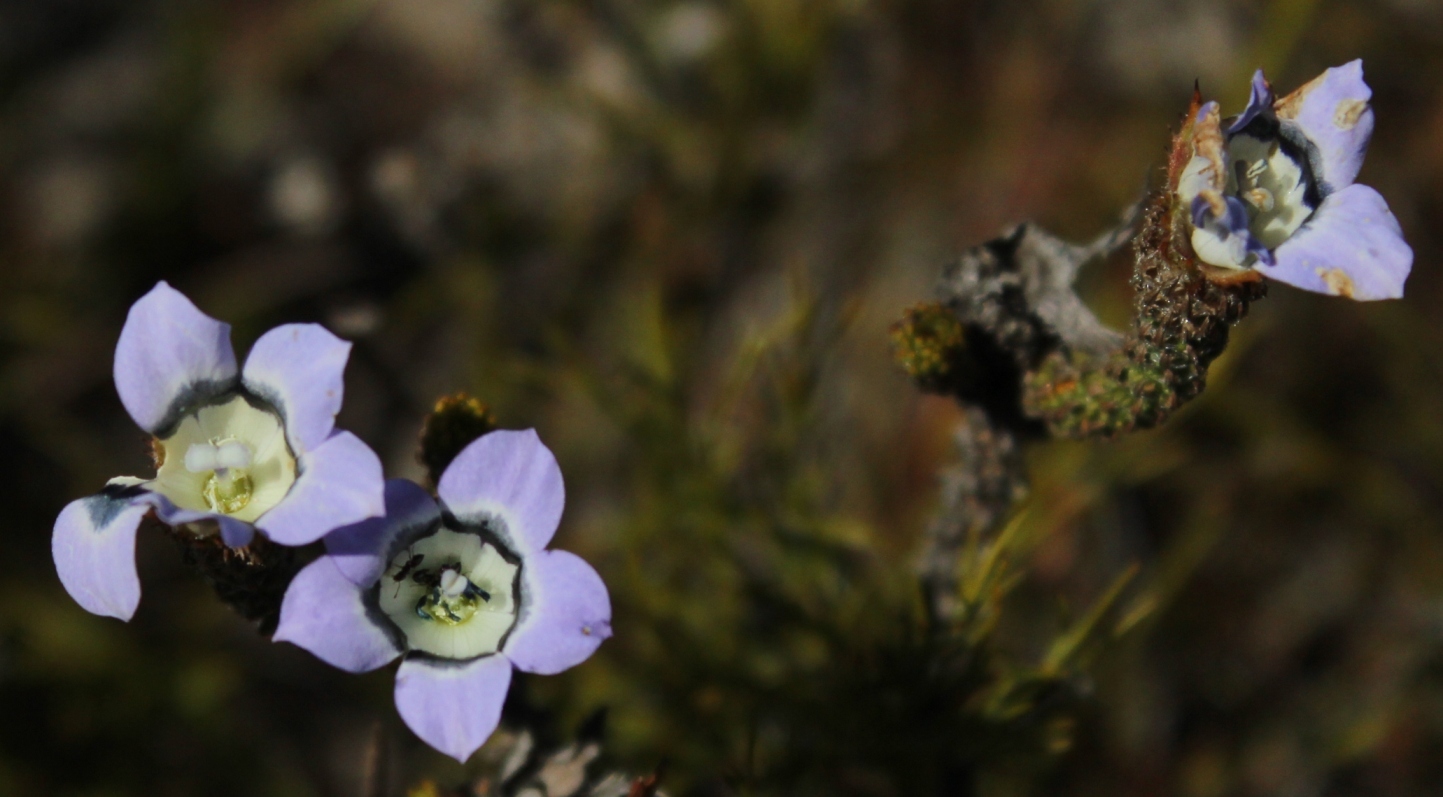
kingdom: Plantae
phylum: Tracheophyta
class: Magnoliopsida
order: Asterales
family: Campanulaceae
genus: Roella
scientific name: Roella ciliata
